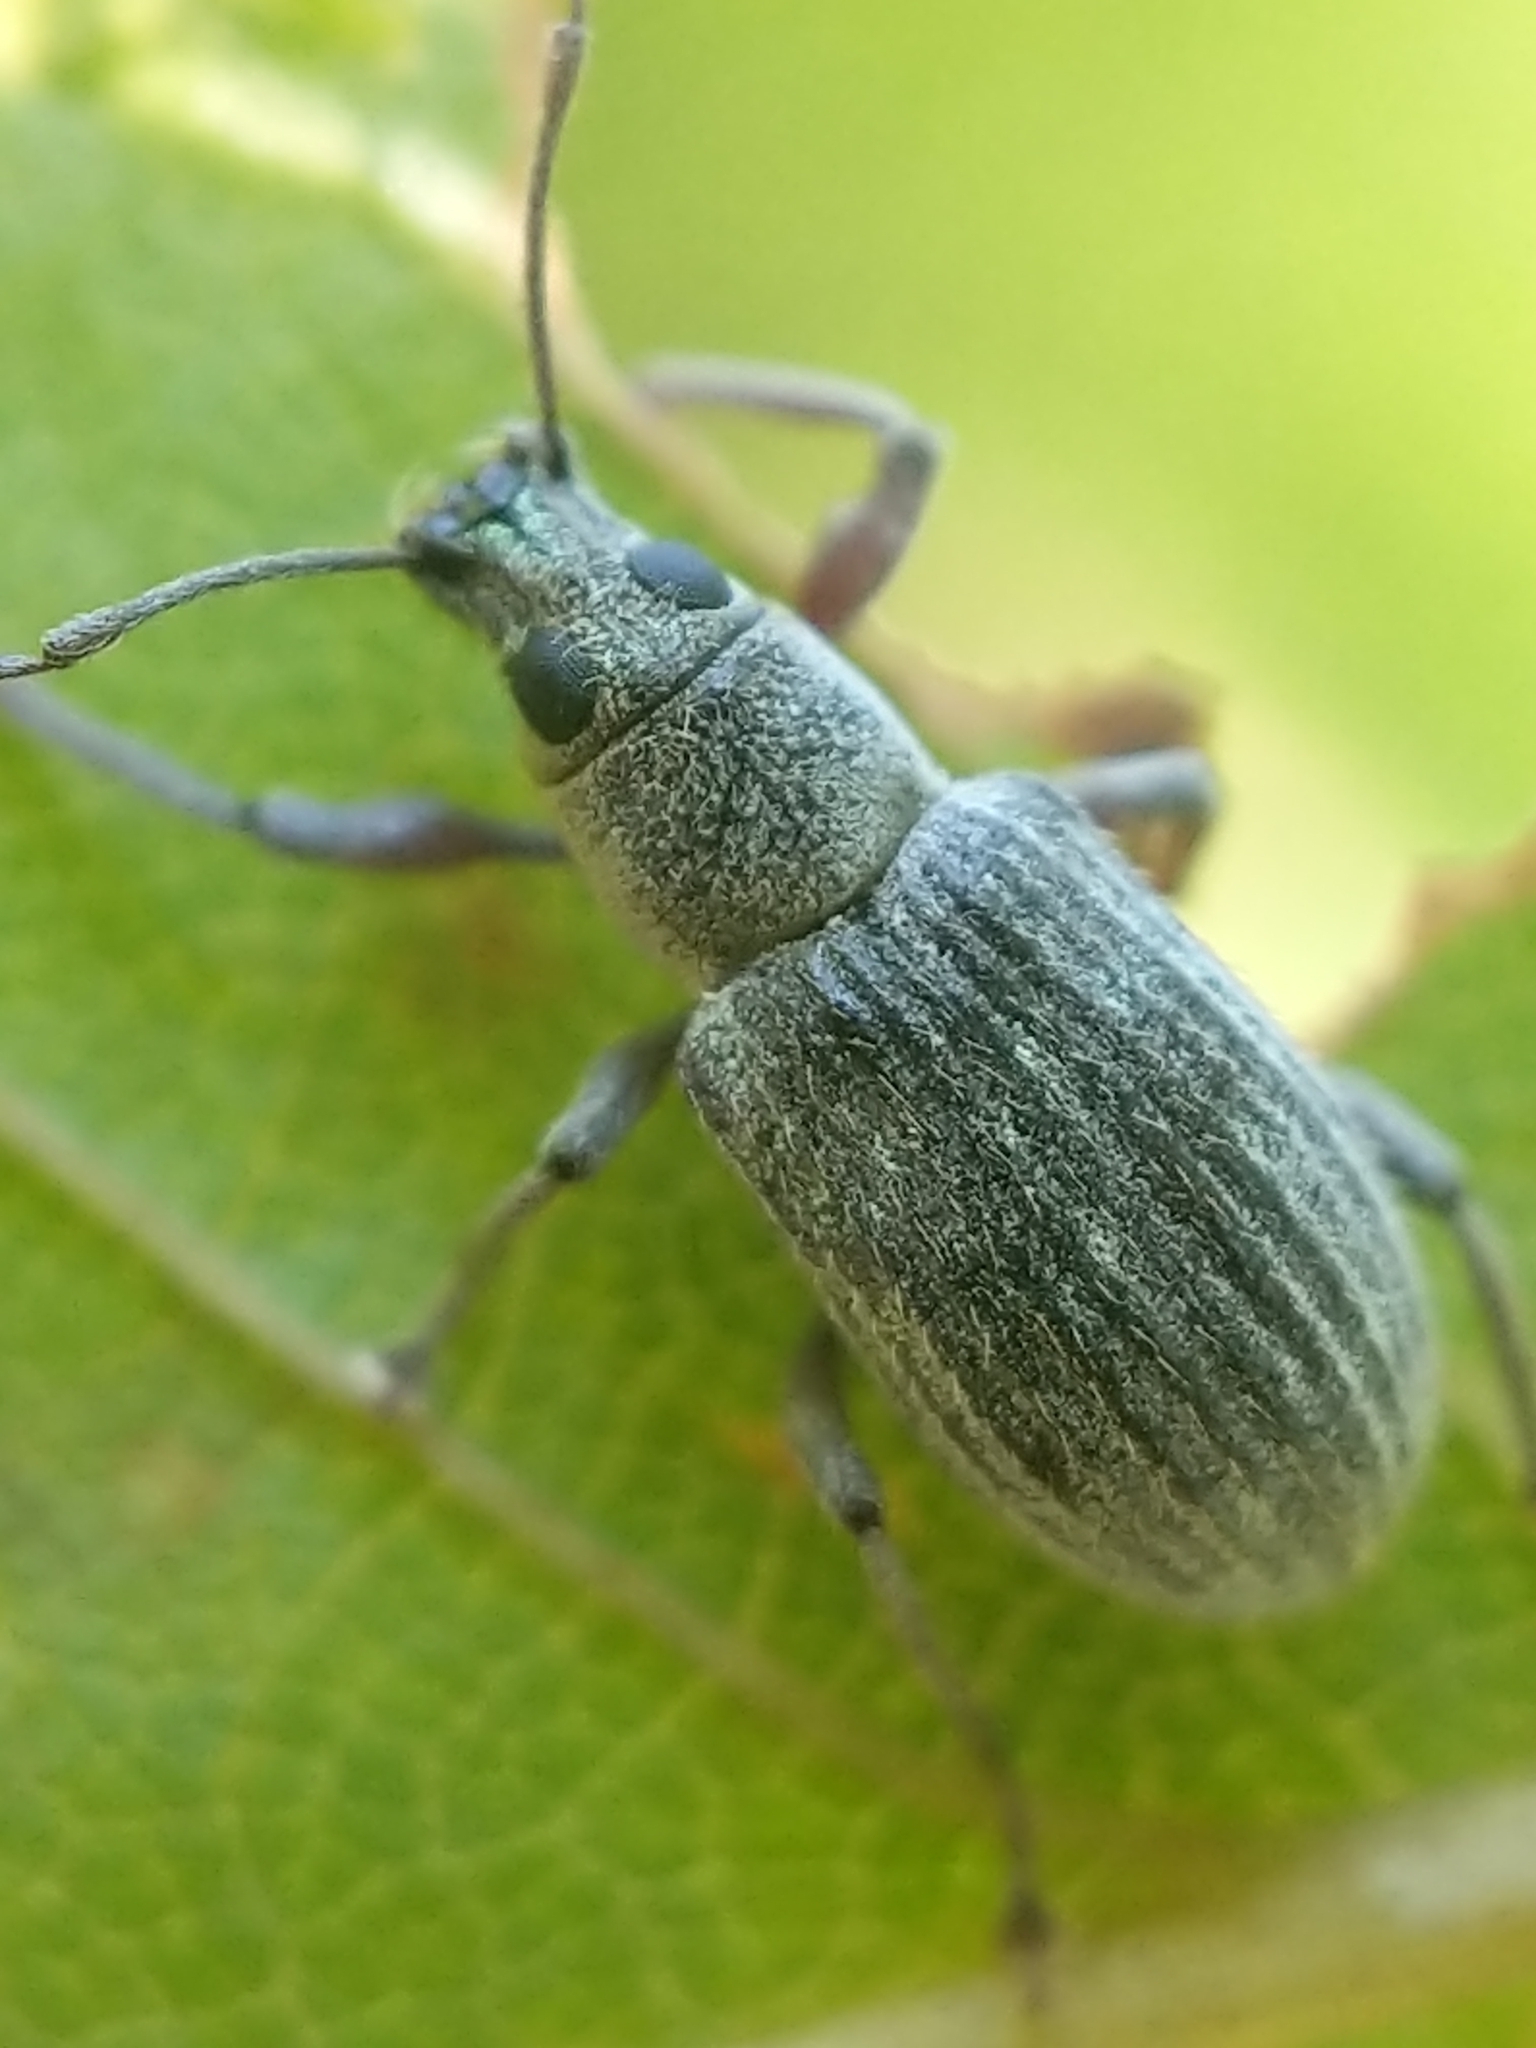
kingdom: Animalia
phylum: Arthropoda
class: Insecta
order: Coleoptera
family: Curculionidae
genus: Cyrtepistomus
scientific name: Cyrtepistomus castaneus
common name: Weevil
